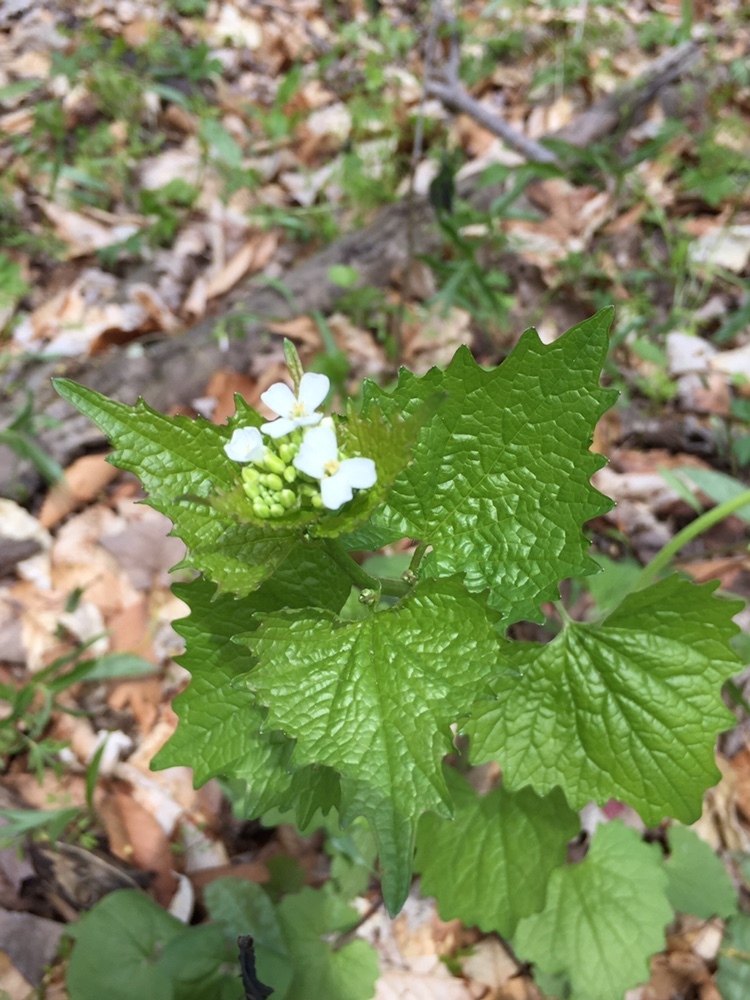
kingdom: Plantae
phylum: Tracheophyta
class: Magnoliopsida
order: Brassicales
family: Brassicaceae
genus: Alliaria
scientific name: Alliaria petiolata
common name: Garlic mustard
